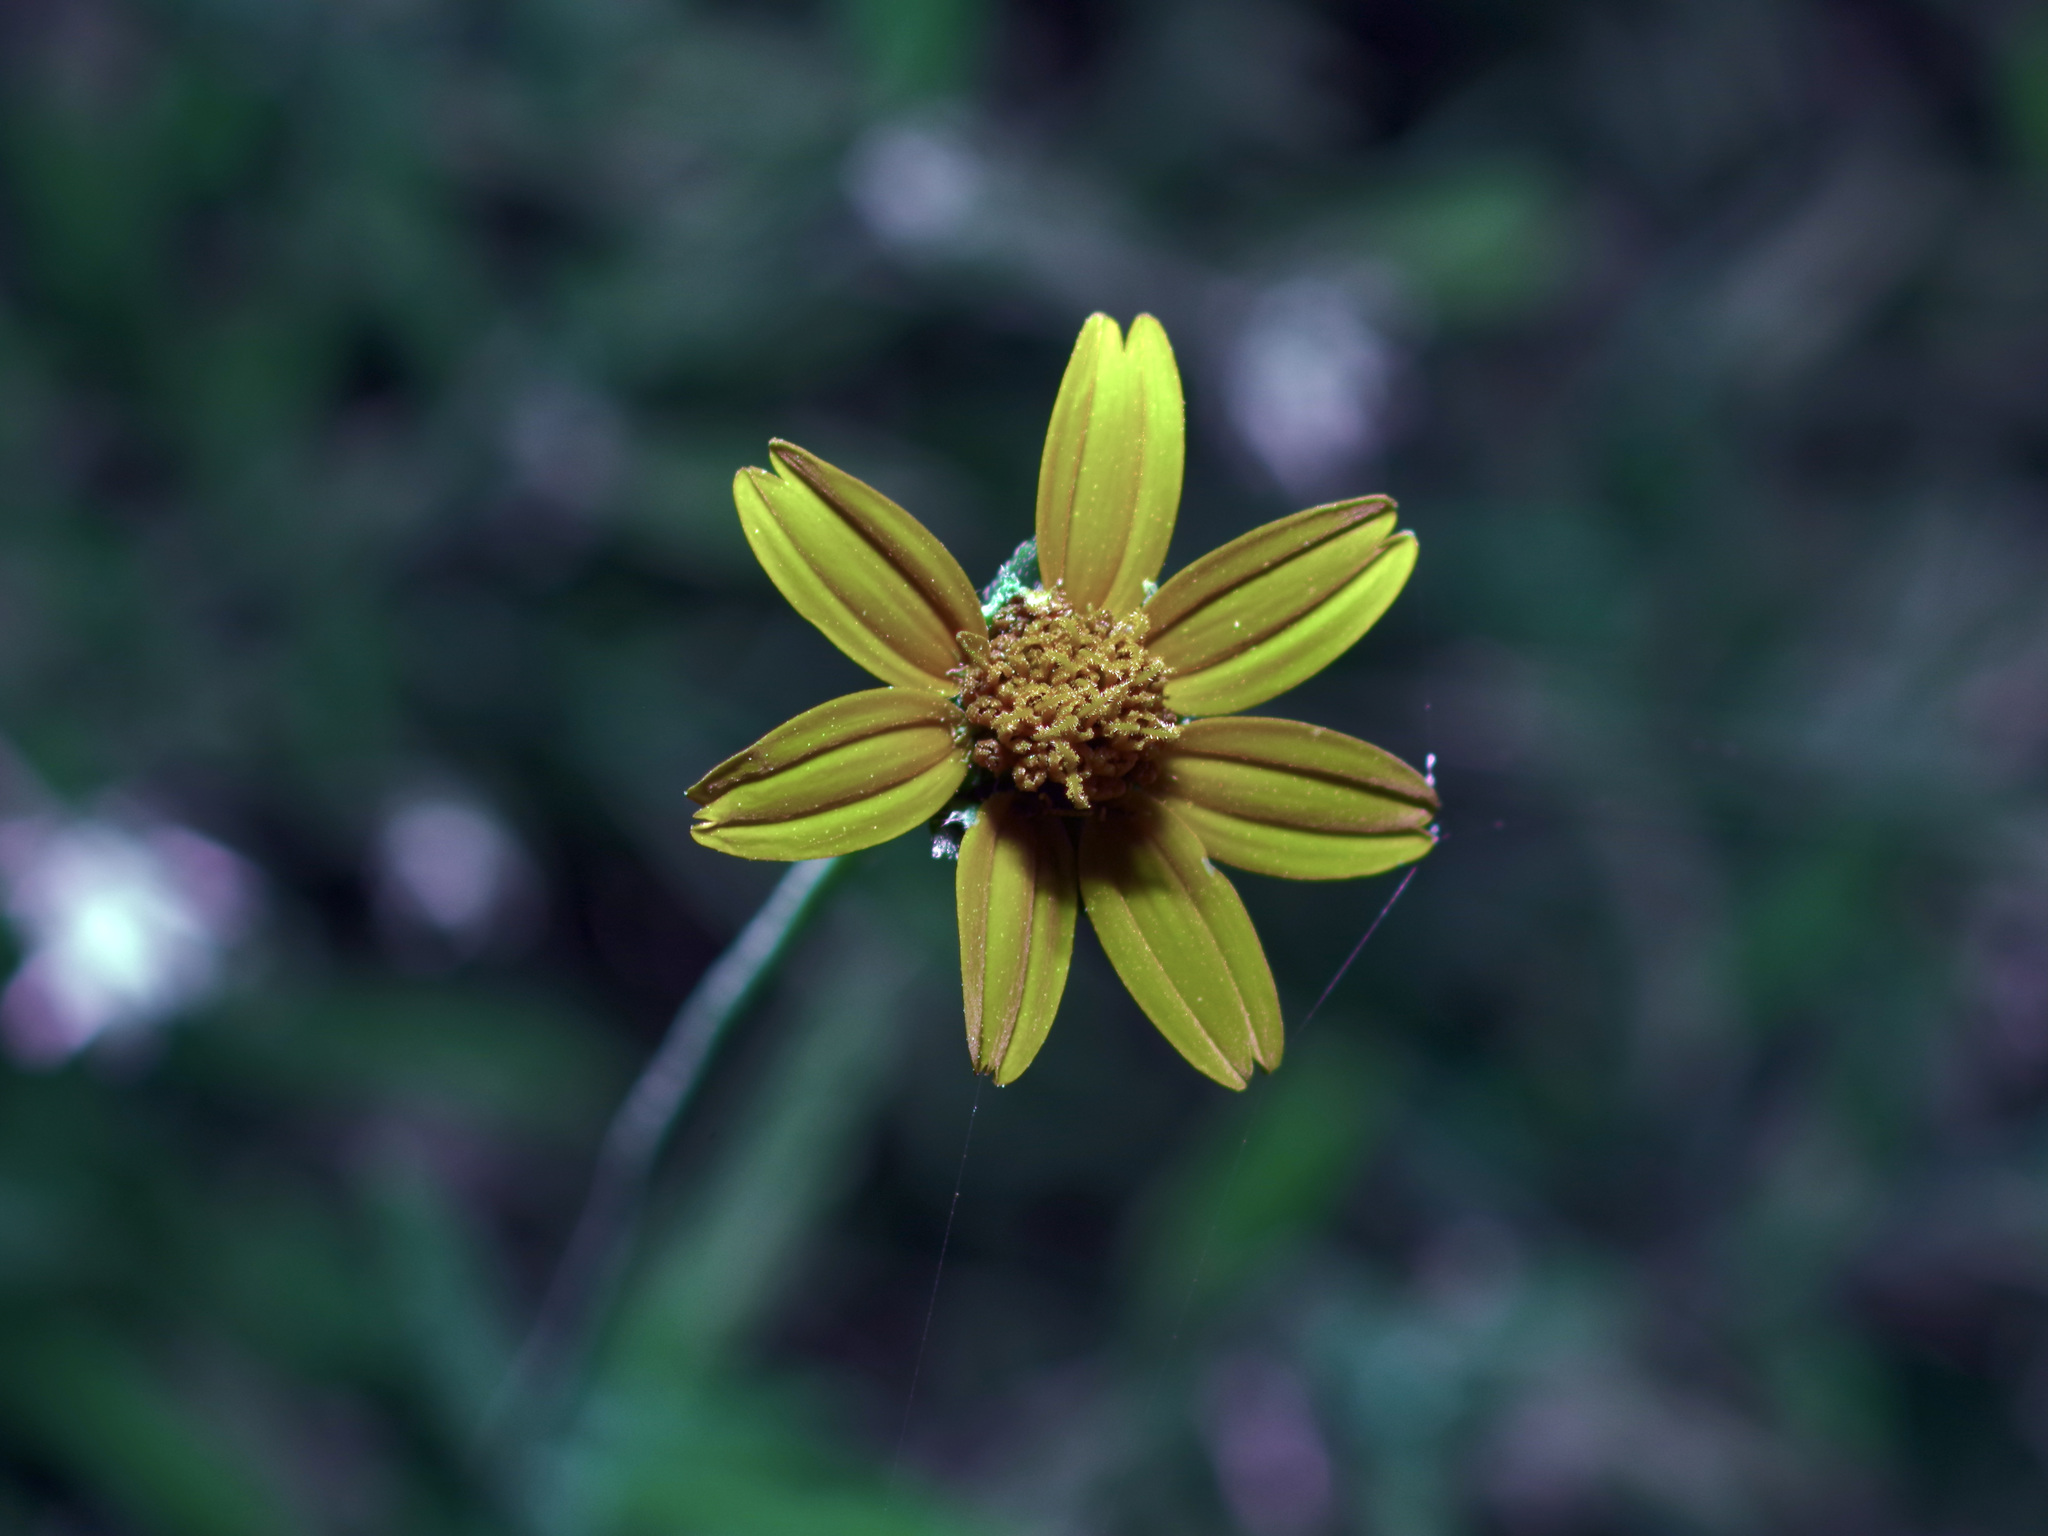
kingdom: Plantae
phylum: Tracheophyta
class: Magnoliopsida
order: Asterales
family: Asteraceae
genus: Wedelia
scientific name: Wedelia acapulcensis
